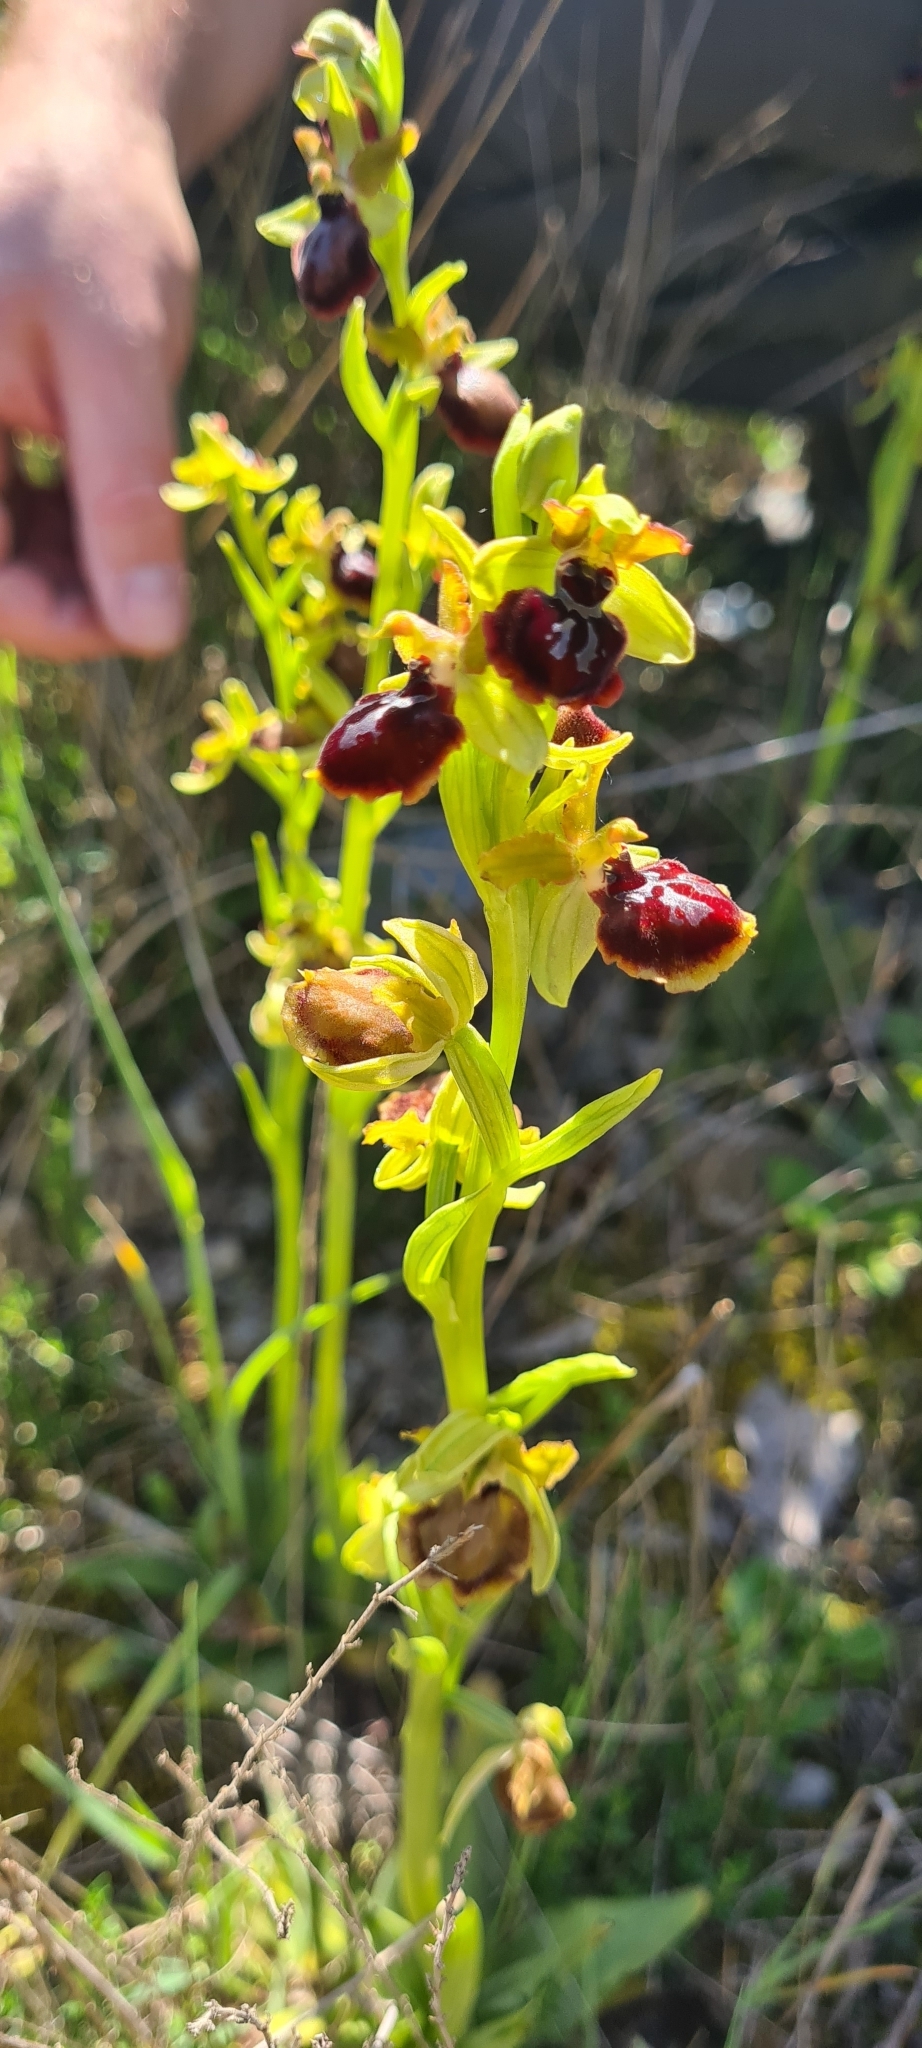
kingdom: Plantae
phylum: Tracheophyta
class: Liliopsida
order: Asparagales
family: Orchidaceae
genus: Ophrys
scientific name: Ophrys sphegodes
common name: Early spider-orchid
